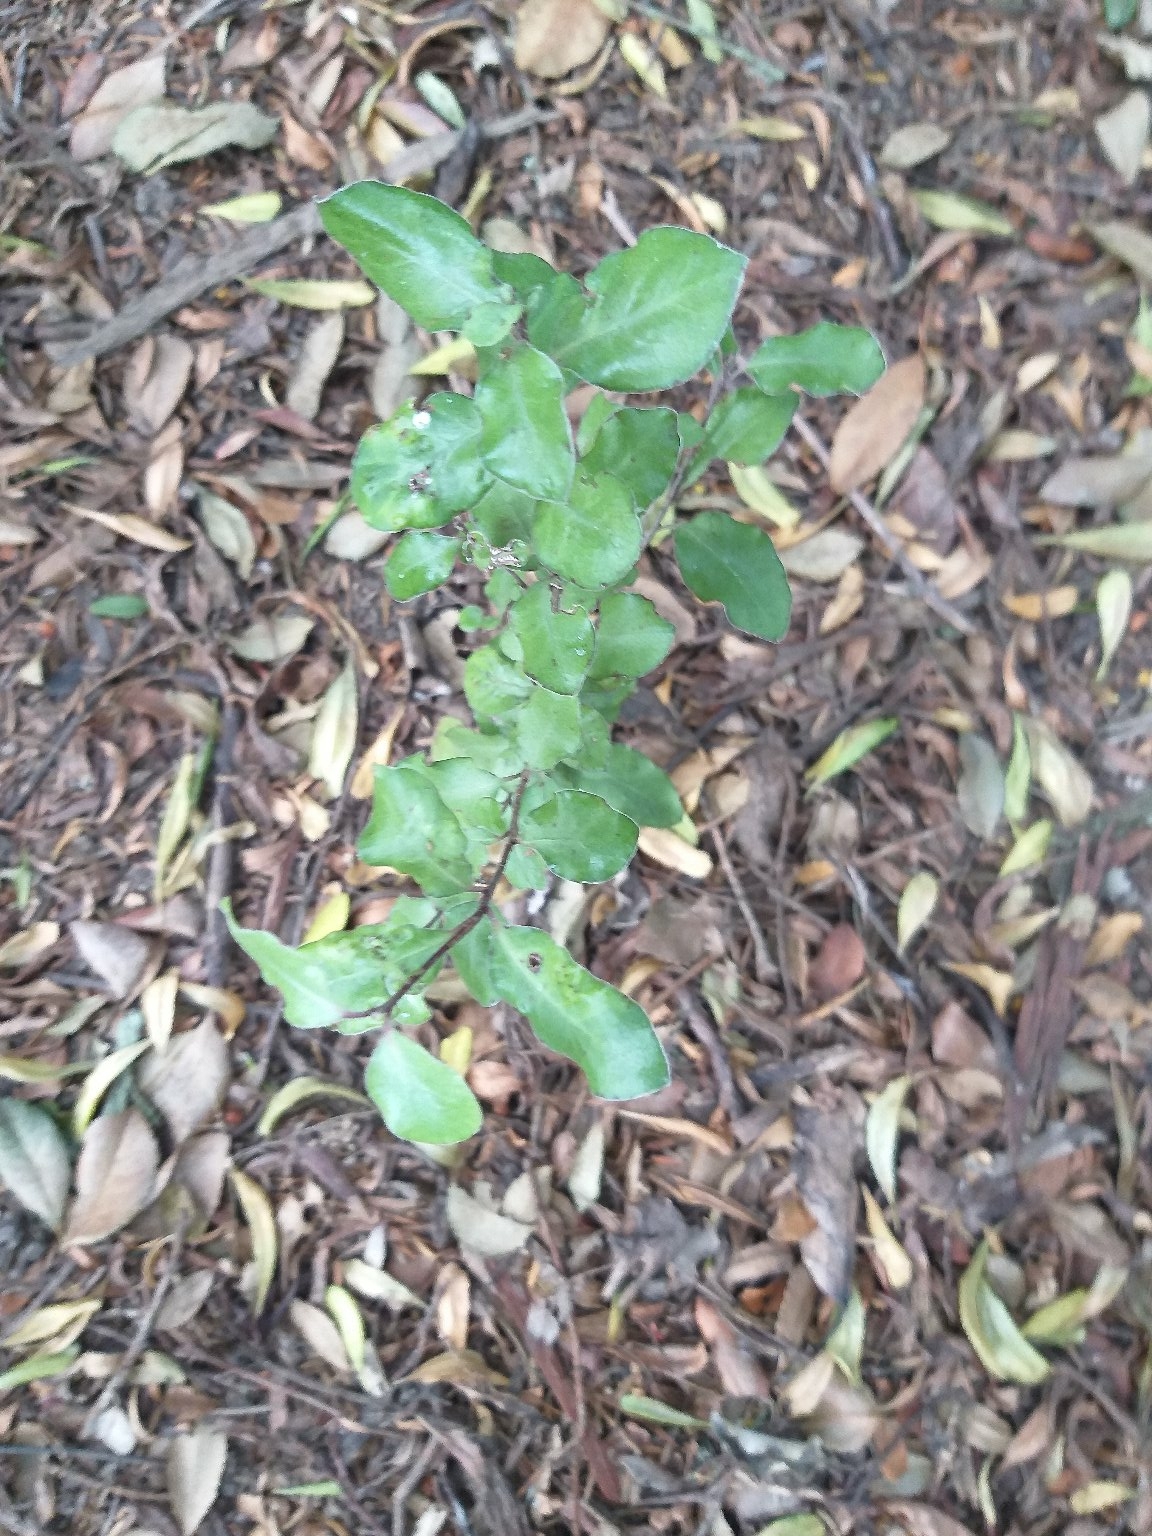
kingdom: Plantae
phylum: Tracheophyta
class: Magnoliopsida
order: Apiales
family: Pittosporaceae
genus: Pittosporum
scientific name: Pittosporum tenuifolium
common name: Kohuhu
